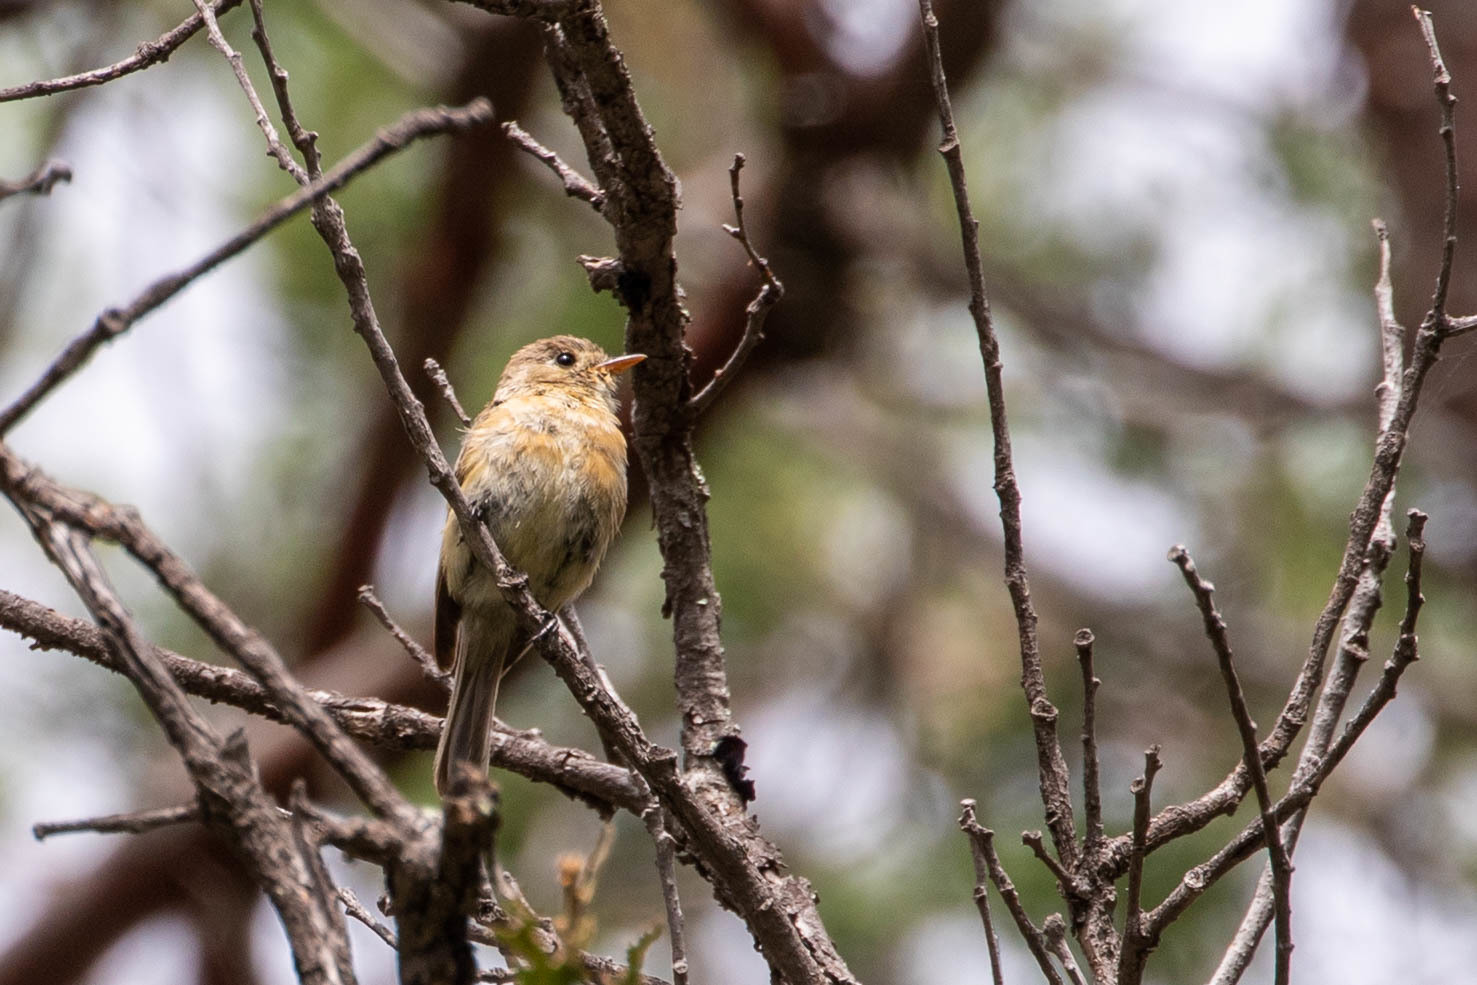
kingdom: Animalia
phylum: Chordata
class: Aves
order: Passeriformes
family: Tyrannidae
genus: Empidonax
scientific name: Empidonax fulvifrons
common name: Buff-breasted flycatcher
